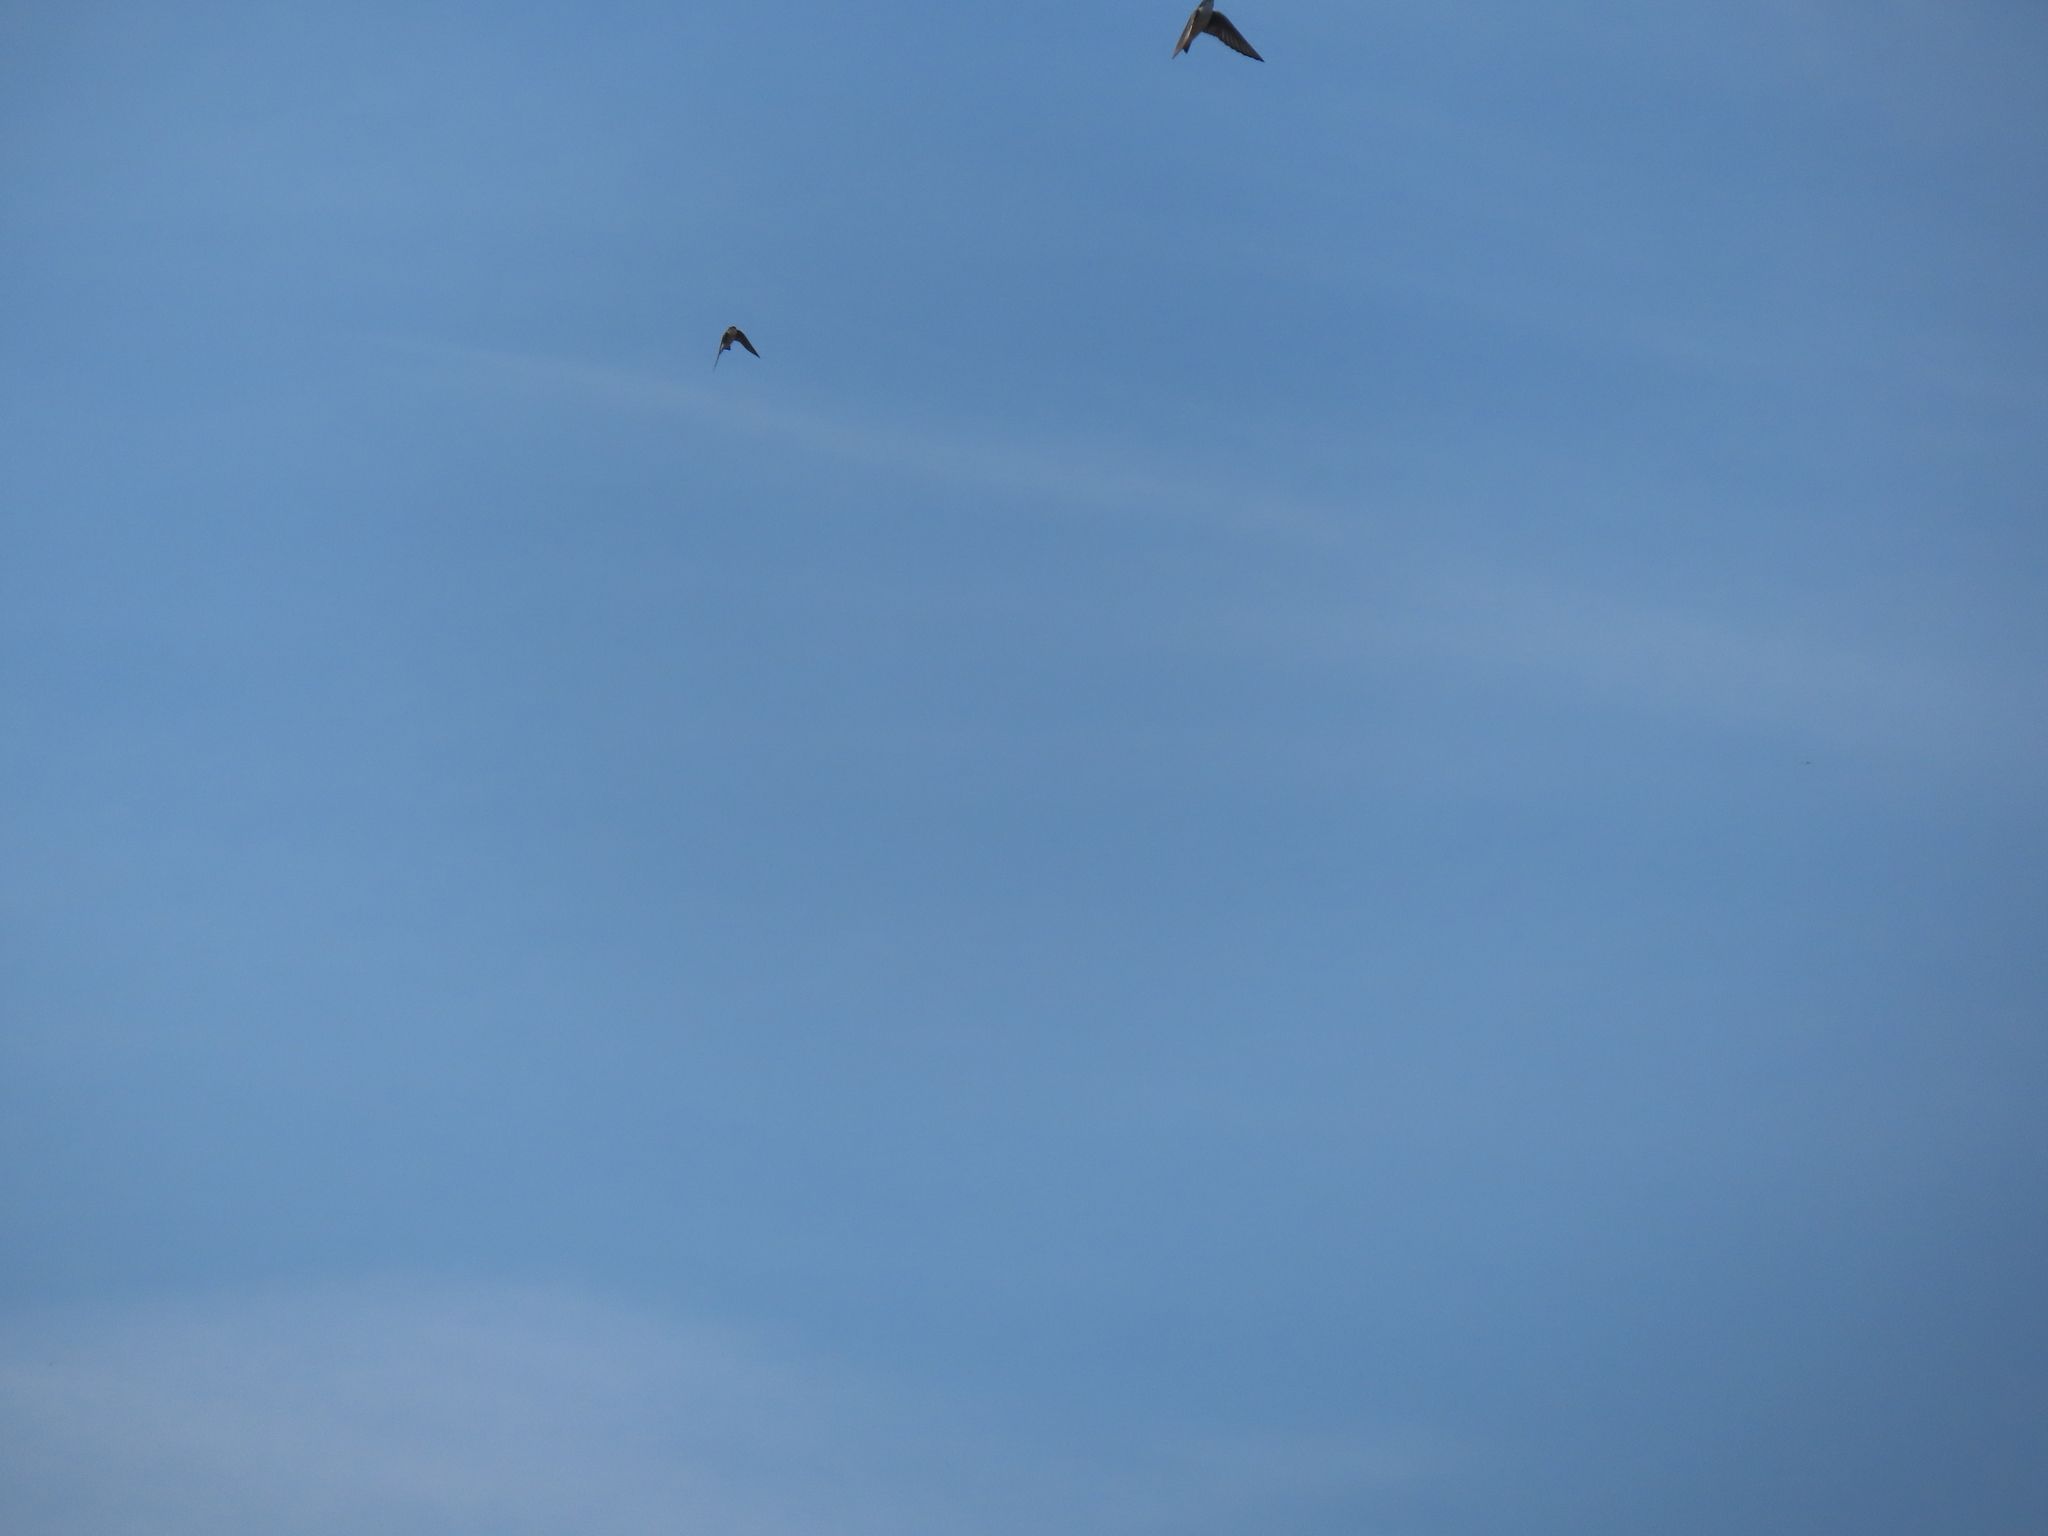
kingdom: Animalia
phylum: Chordata
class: Aves
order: Passeriformes
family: Hirundinidae
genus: Tachycineta
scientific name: Tachycineta bicolor
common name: Tree swallow
